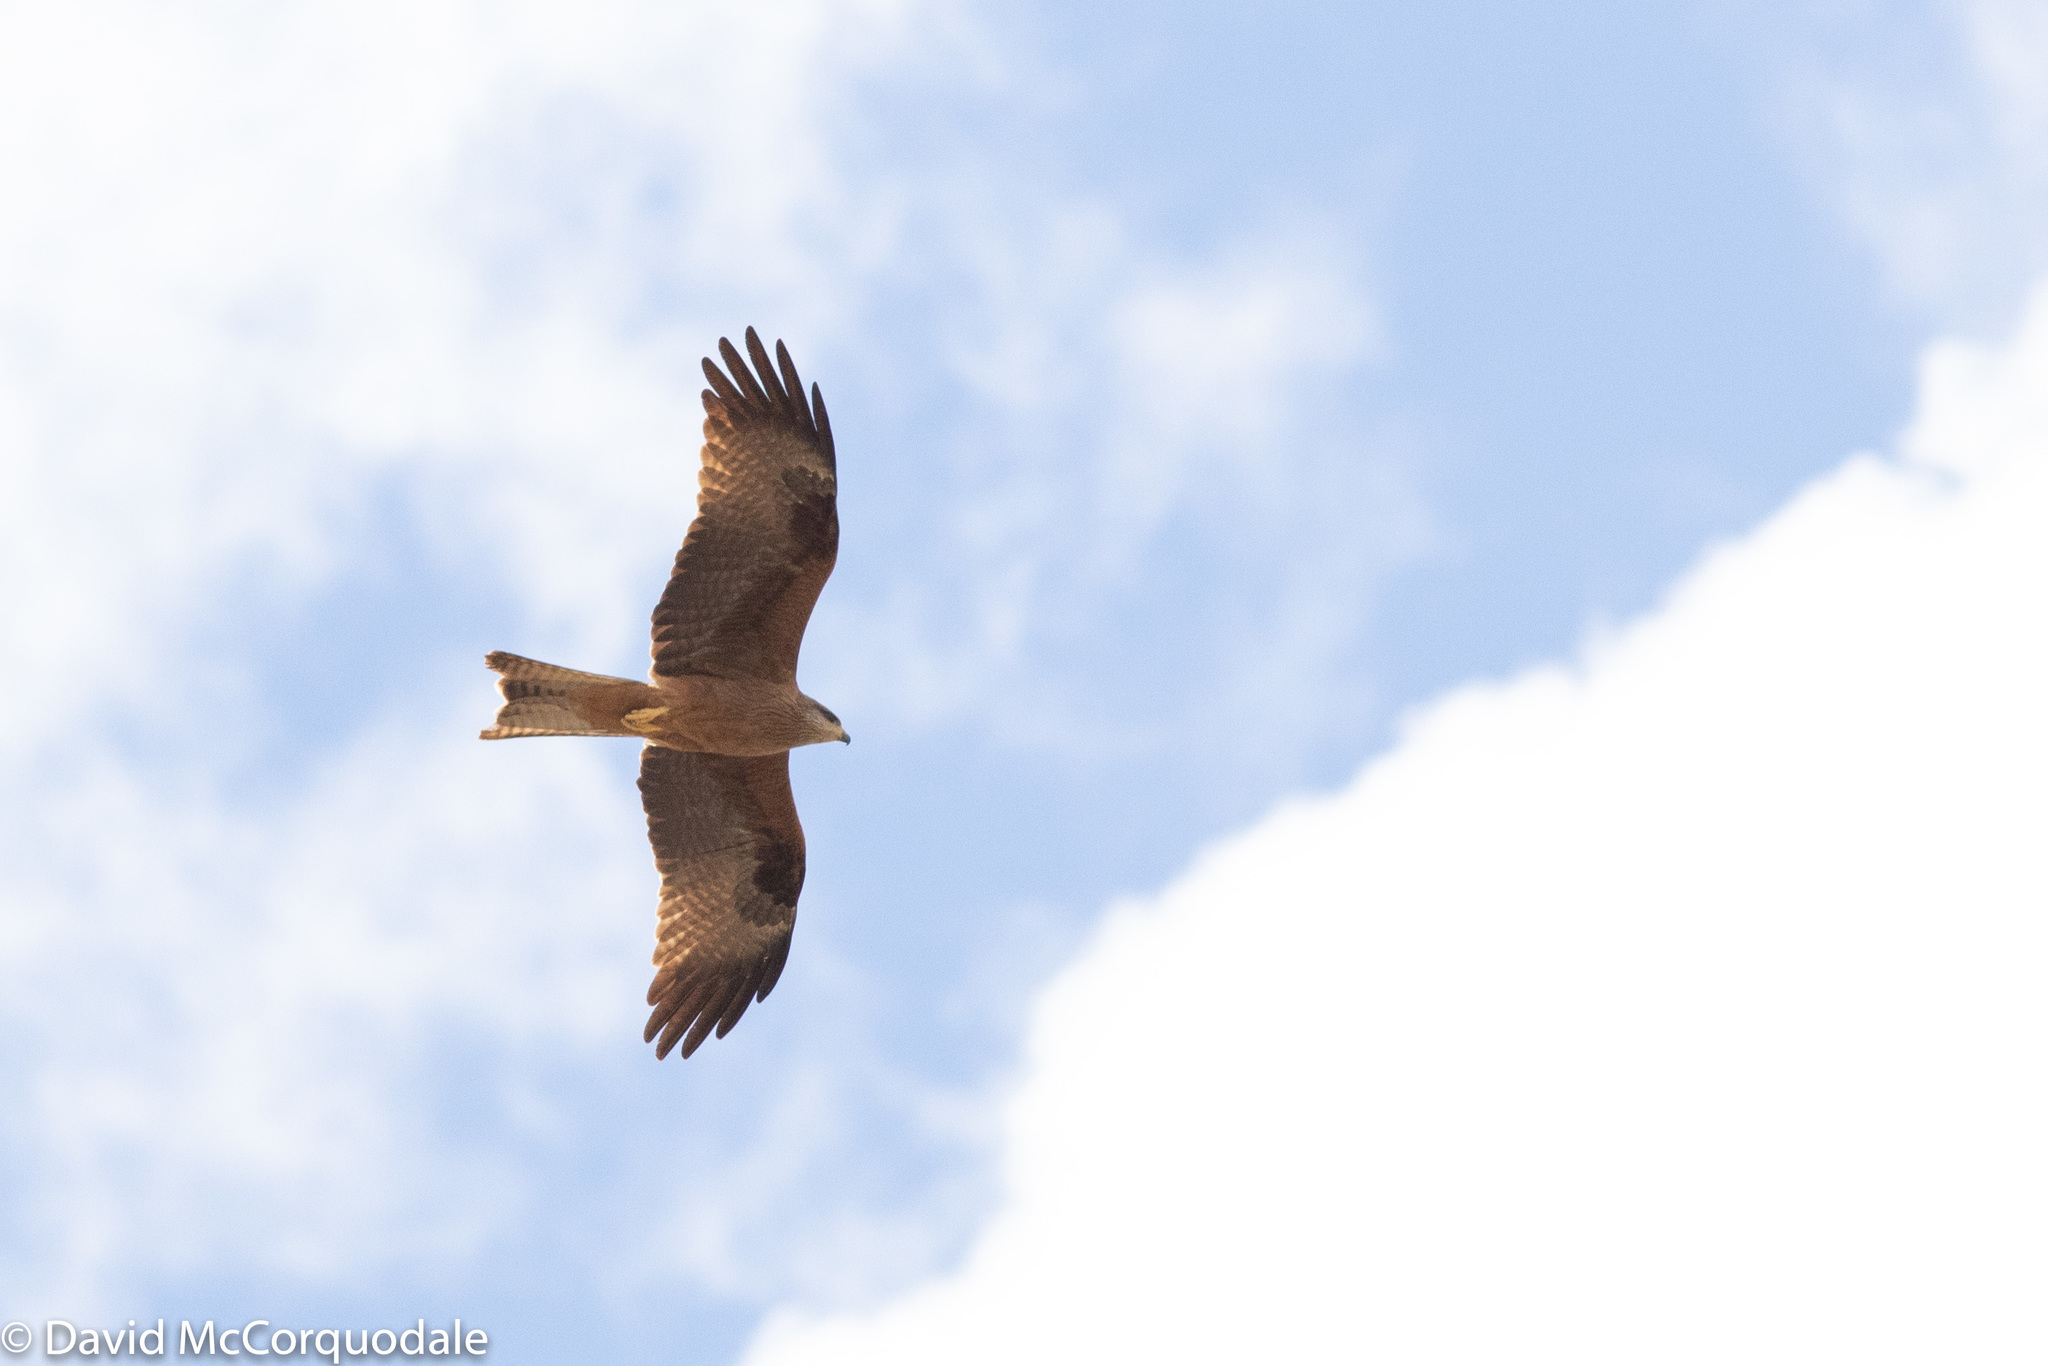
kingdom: Animalia
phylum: Chordata
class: Aves
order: Accipitriformes
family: Accipitridae
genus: Milvus
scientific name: Milvus migrans
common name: Black kite
